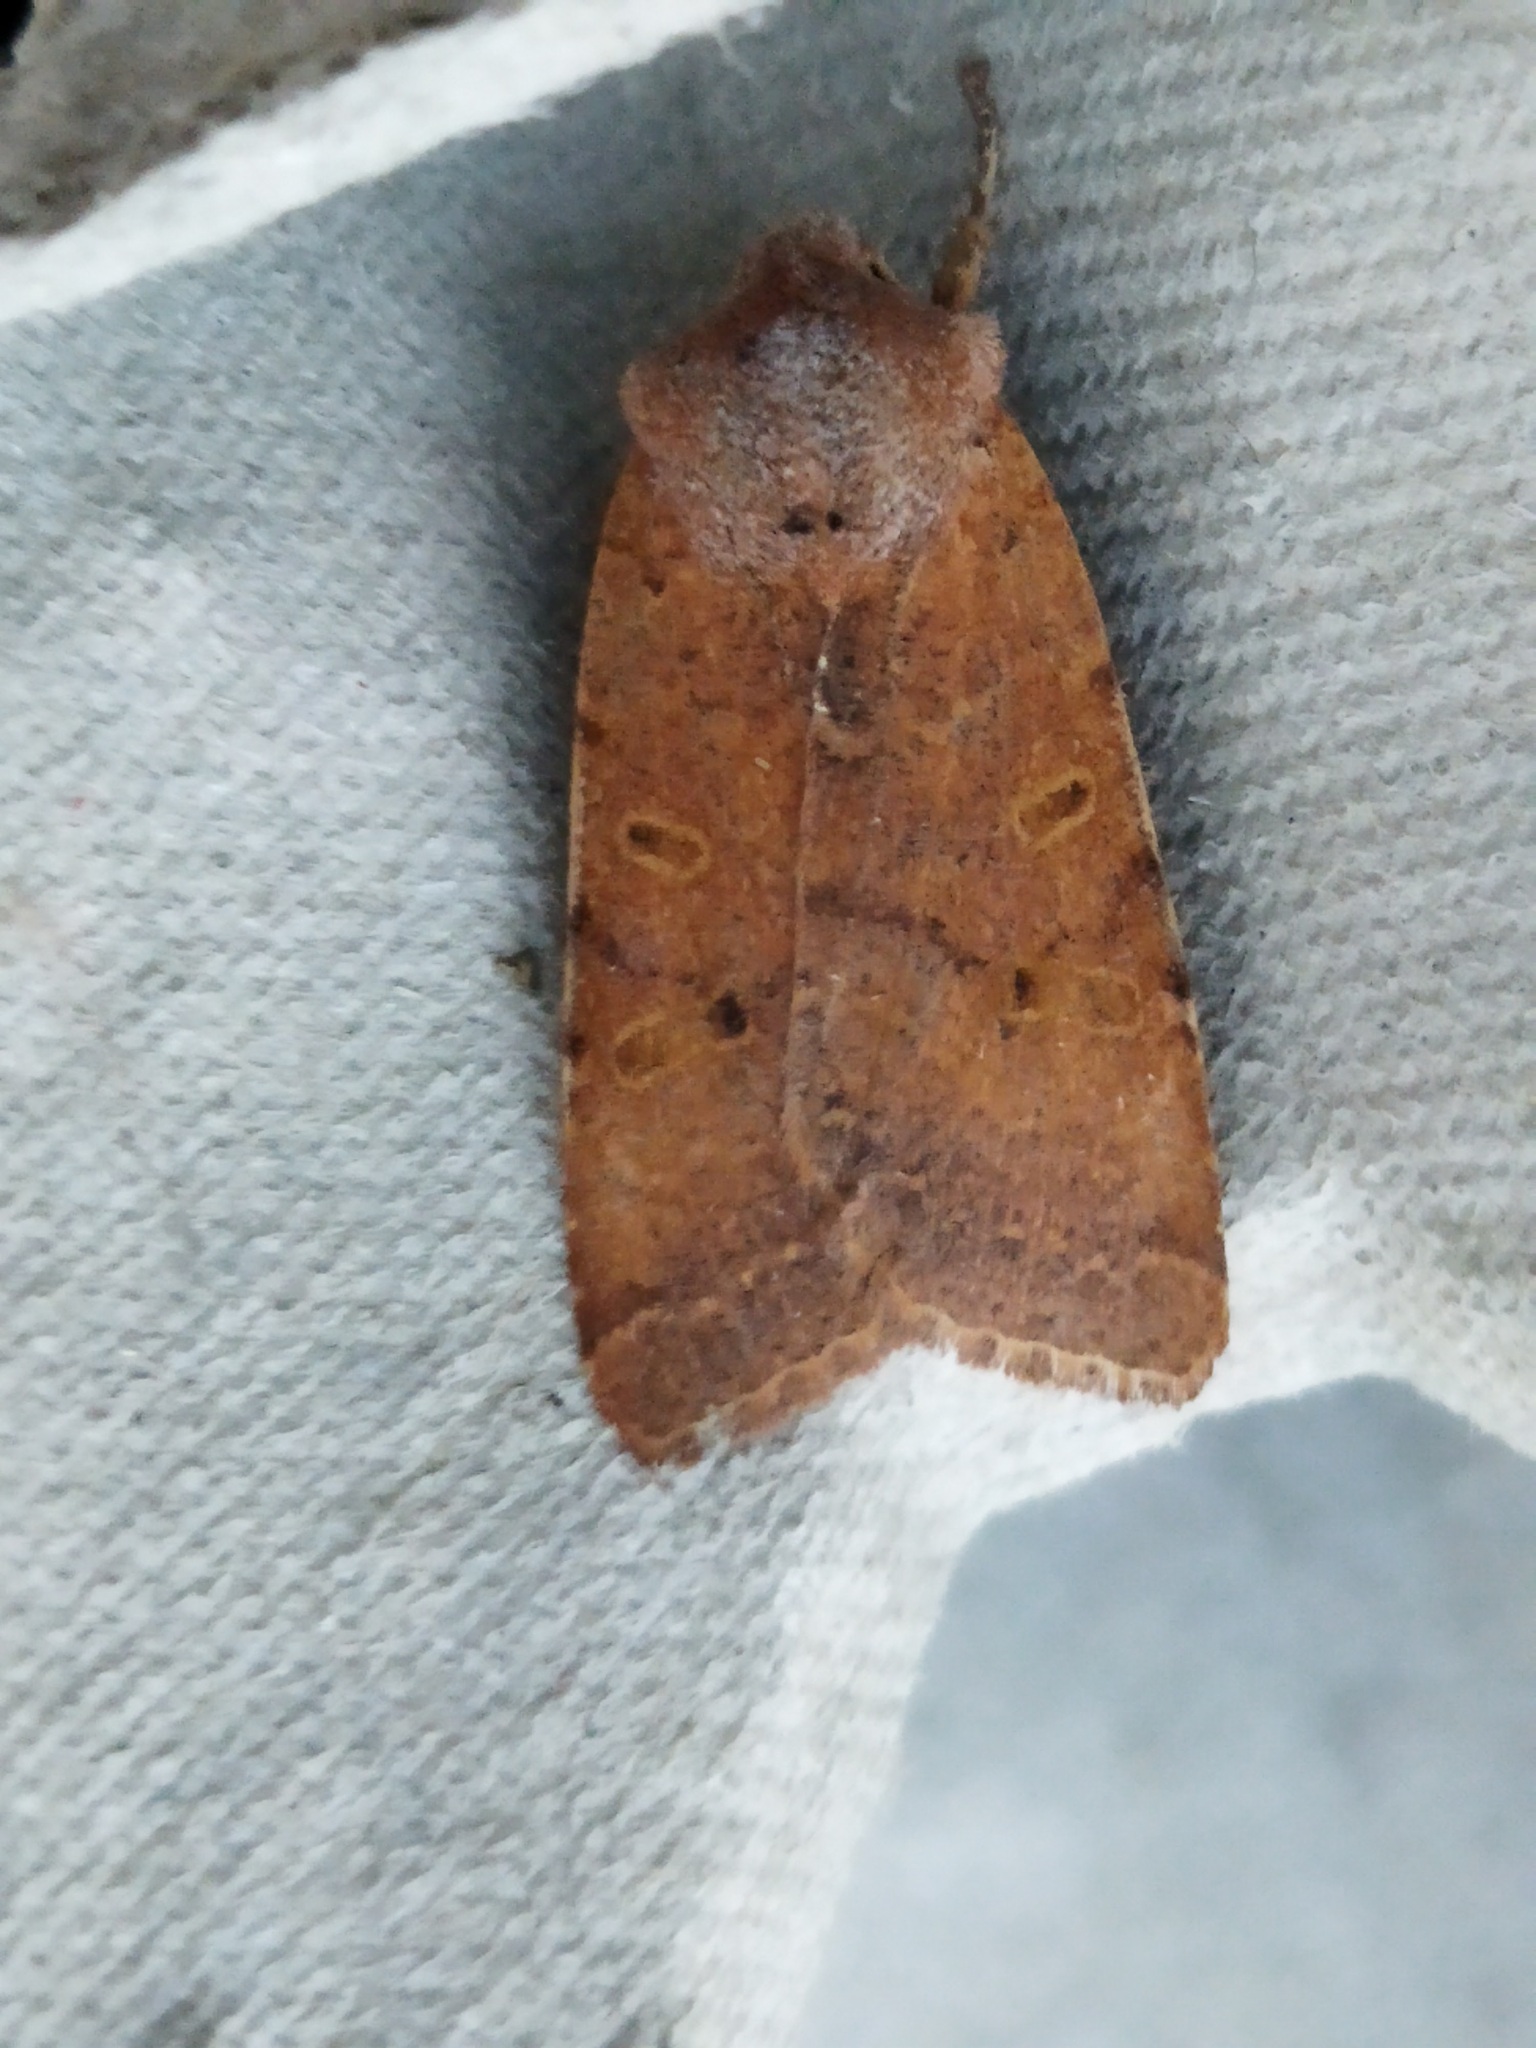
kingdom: Animalia
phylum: Arthropoda
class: Insecta
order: Lepidoptera
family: Noctuidae
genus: Agrochola
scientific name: Agrochola lychnidis
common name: Beaded chestnut
